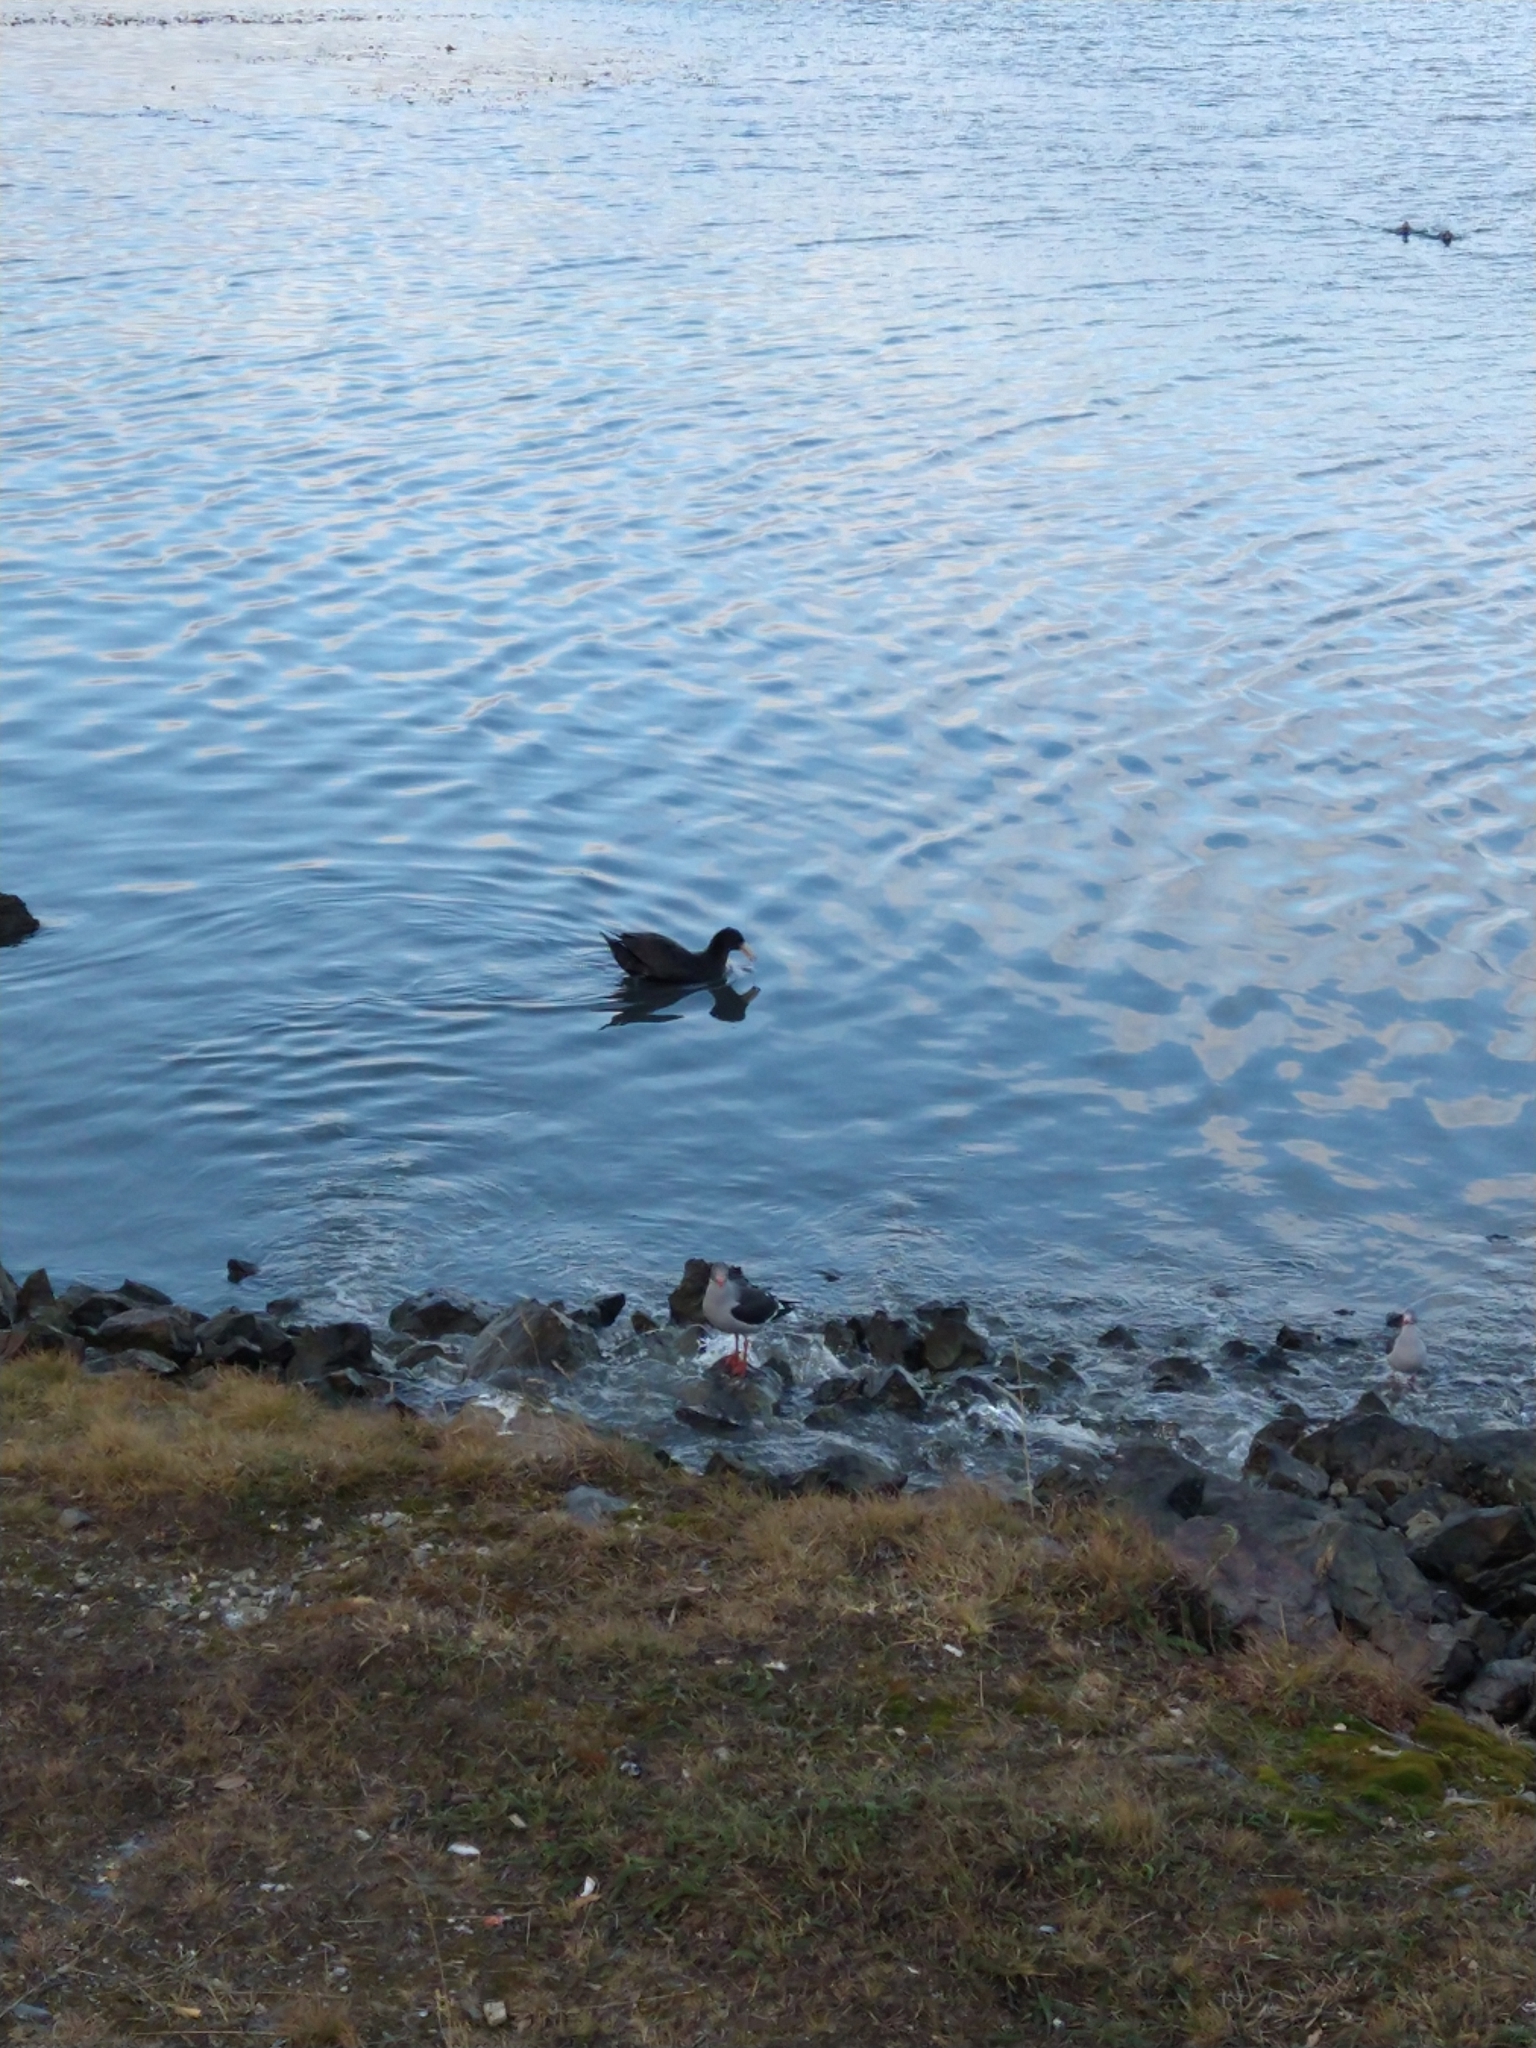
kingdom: Animalia
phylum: Chordata
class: Aves
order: Procellariiformes
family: Procellariidae
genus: Macronectes
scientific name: Macronectes giganteus
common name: Southern giant petrel
